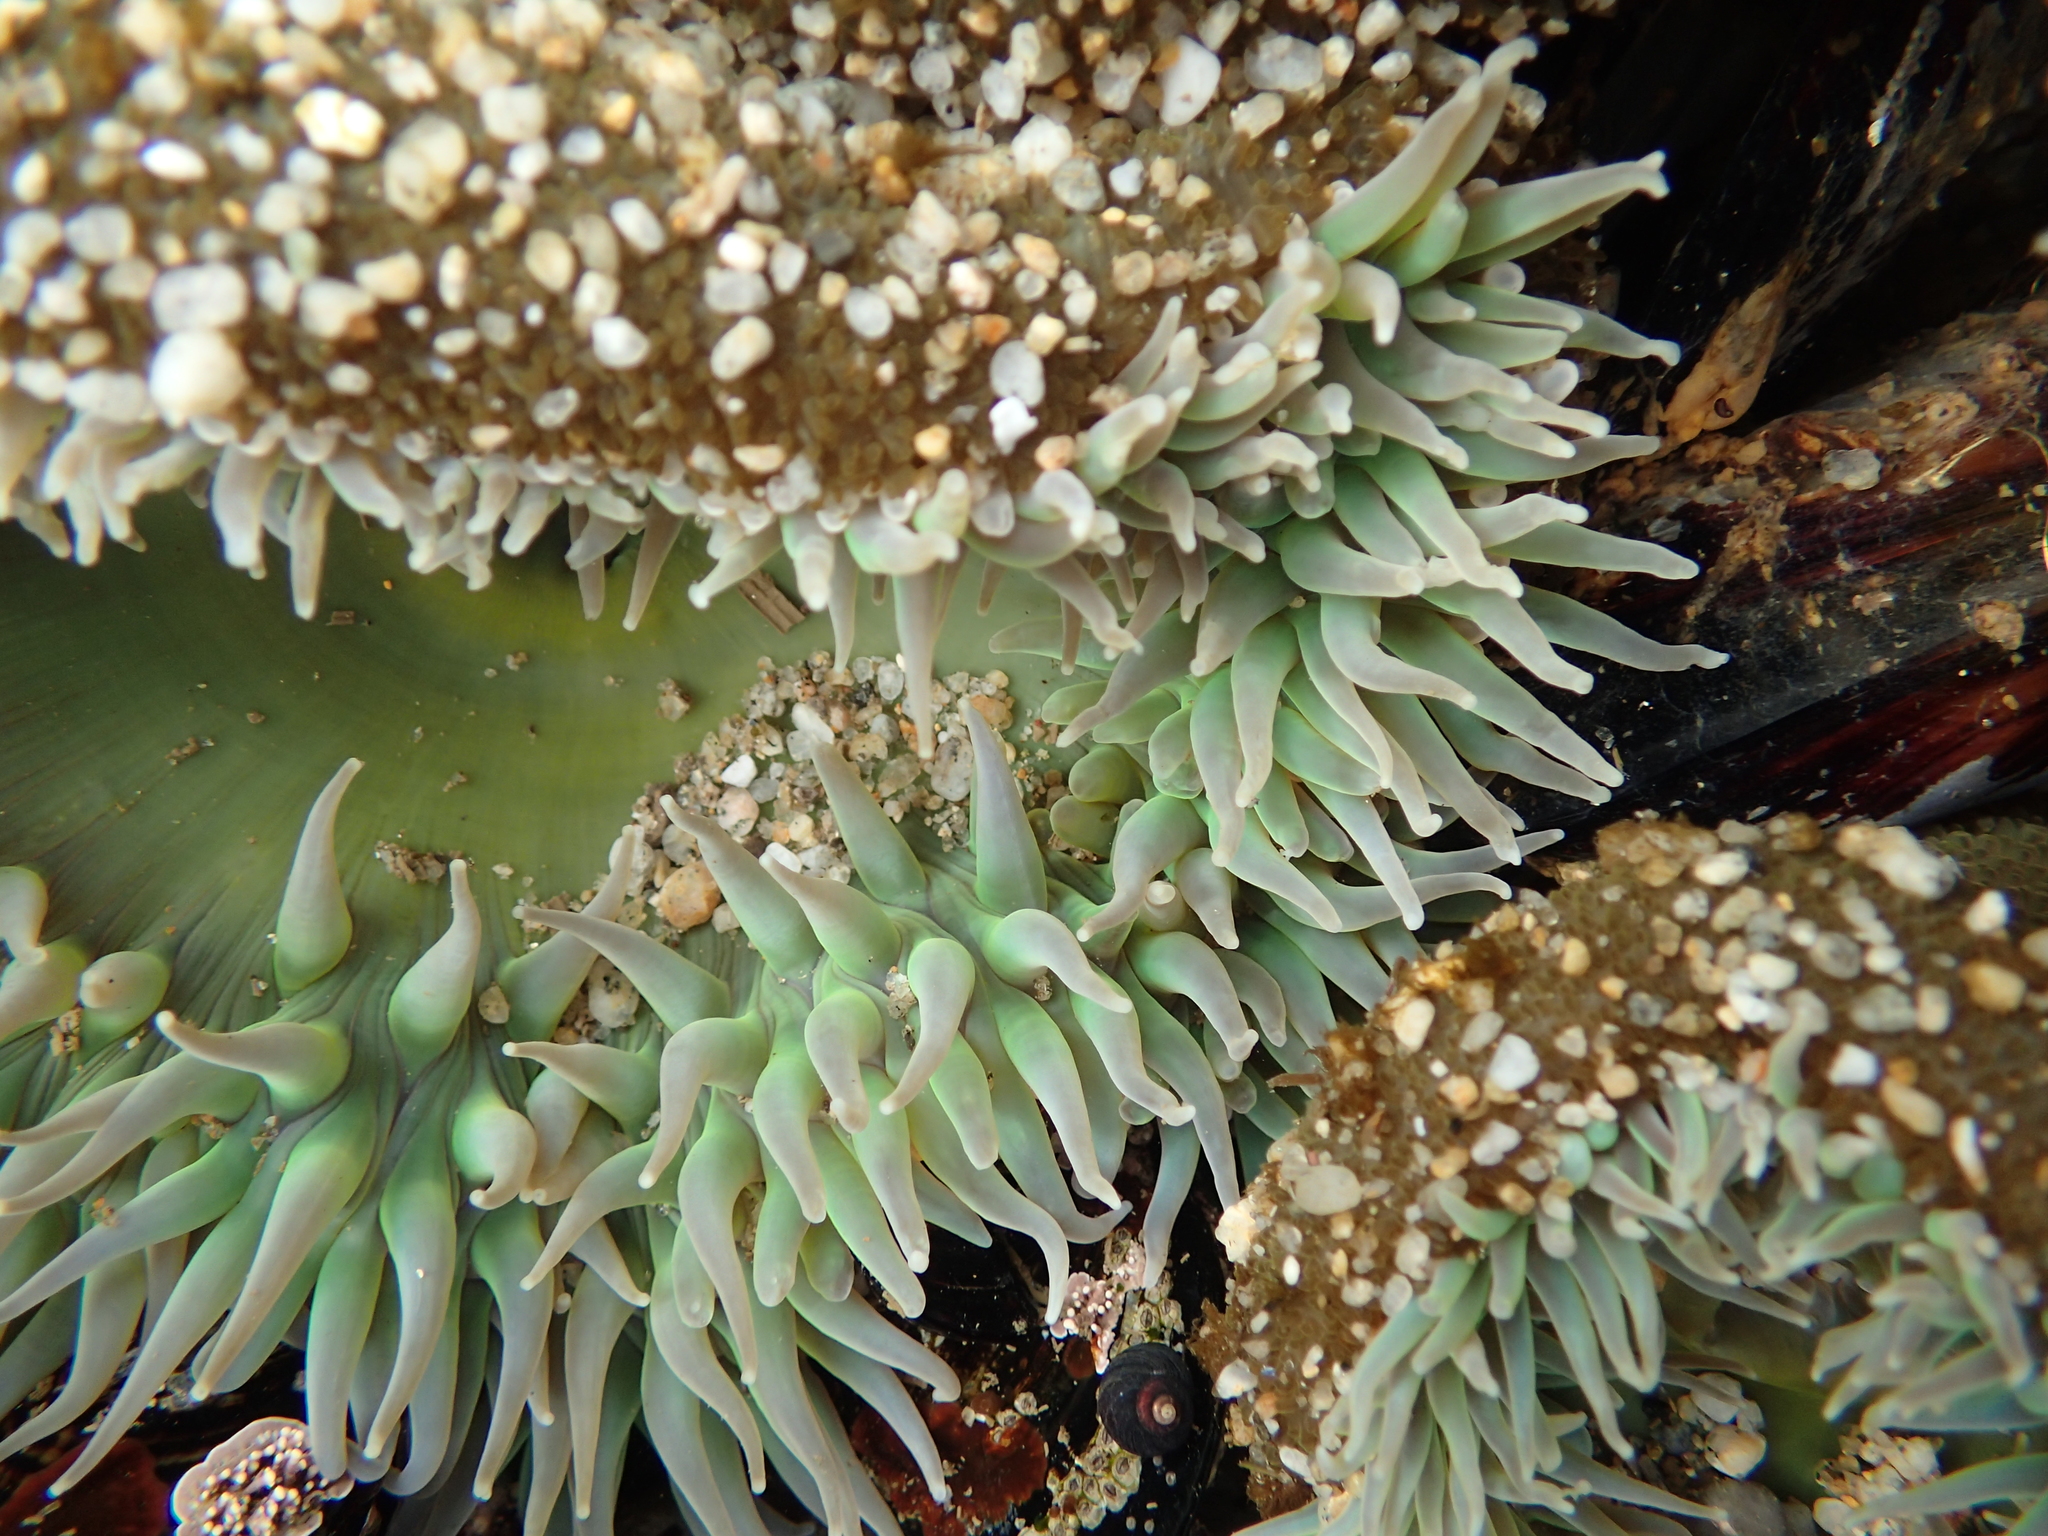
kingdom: Animalia
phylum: Cnidaria
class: Anthozoa
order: Actiniaria
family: Actiniidae
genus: Anthopleura
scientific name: Anthopleura xanthogrammica
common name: Giant green anemone
